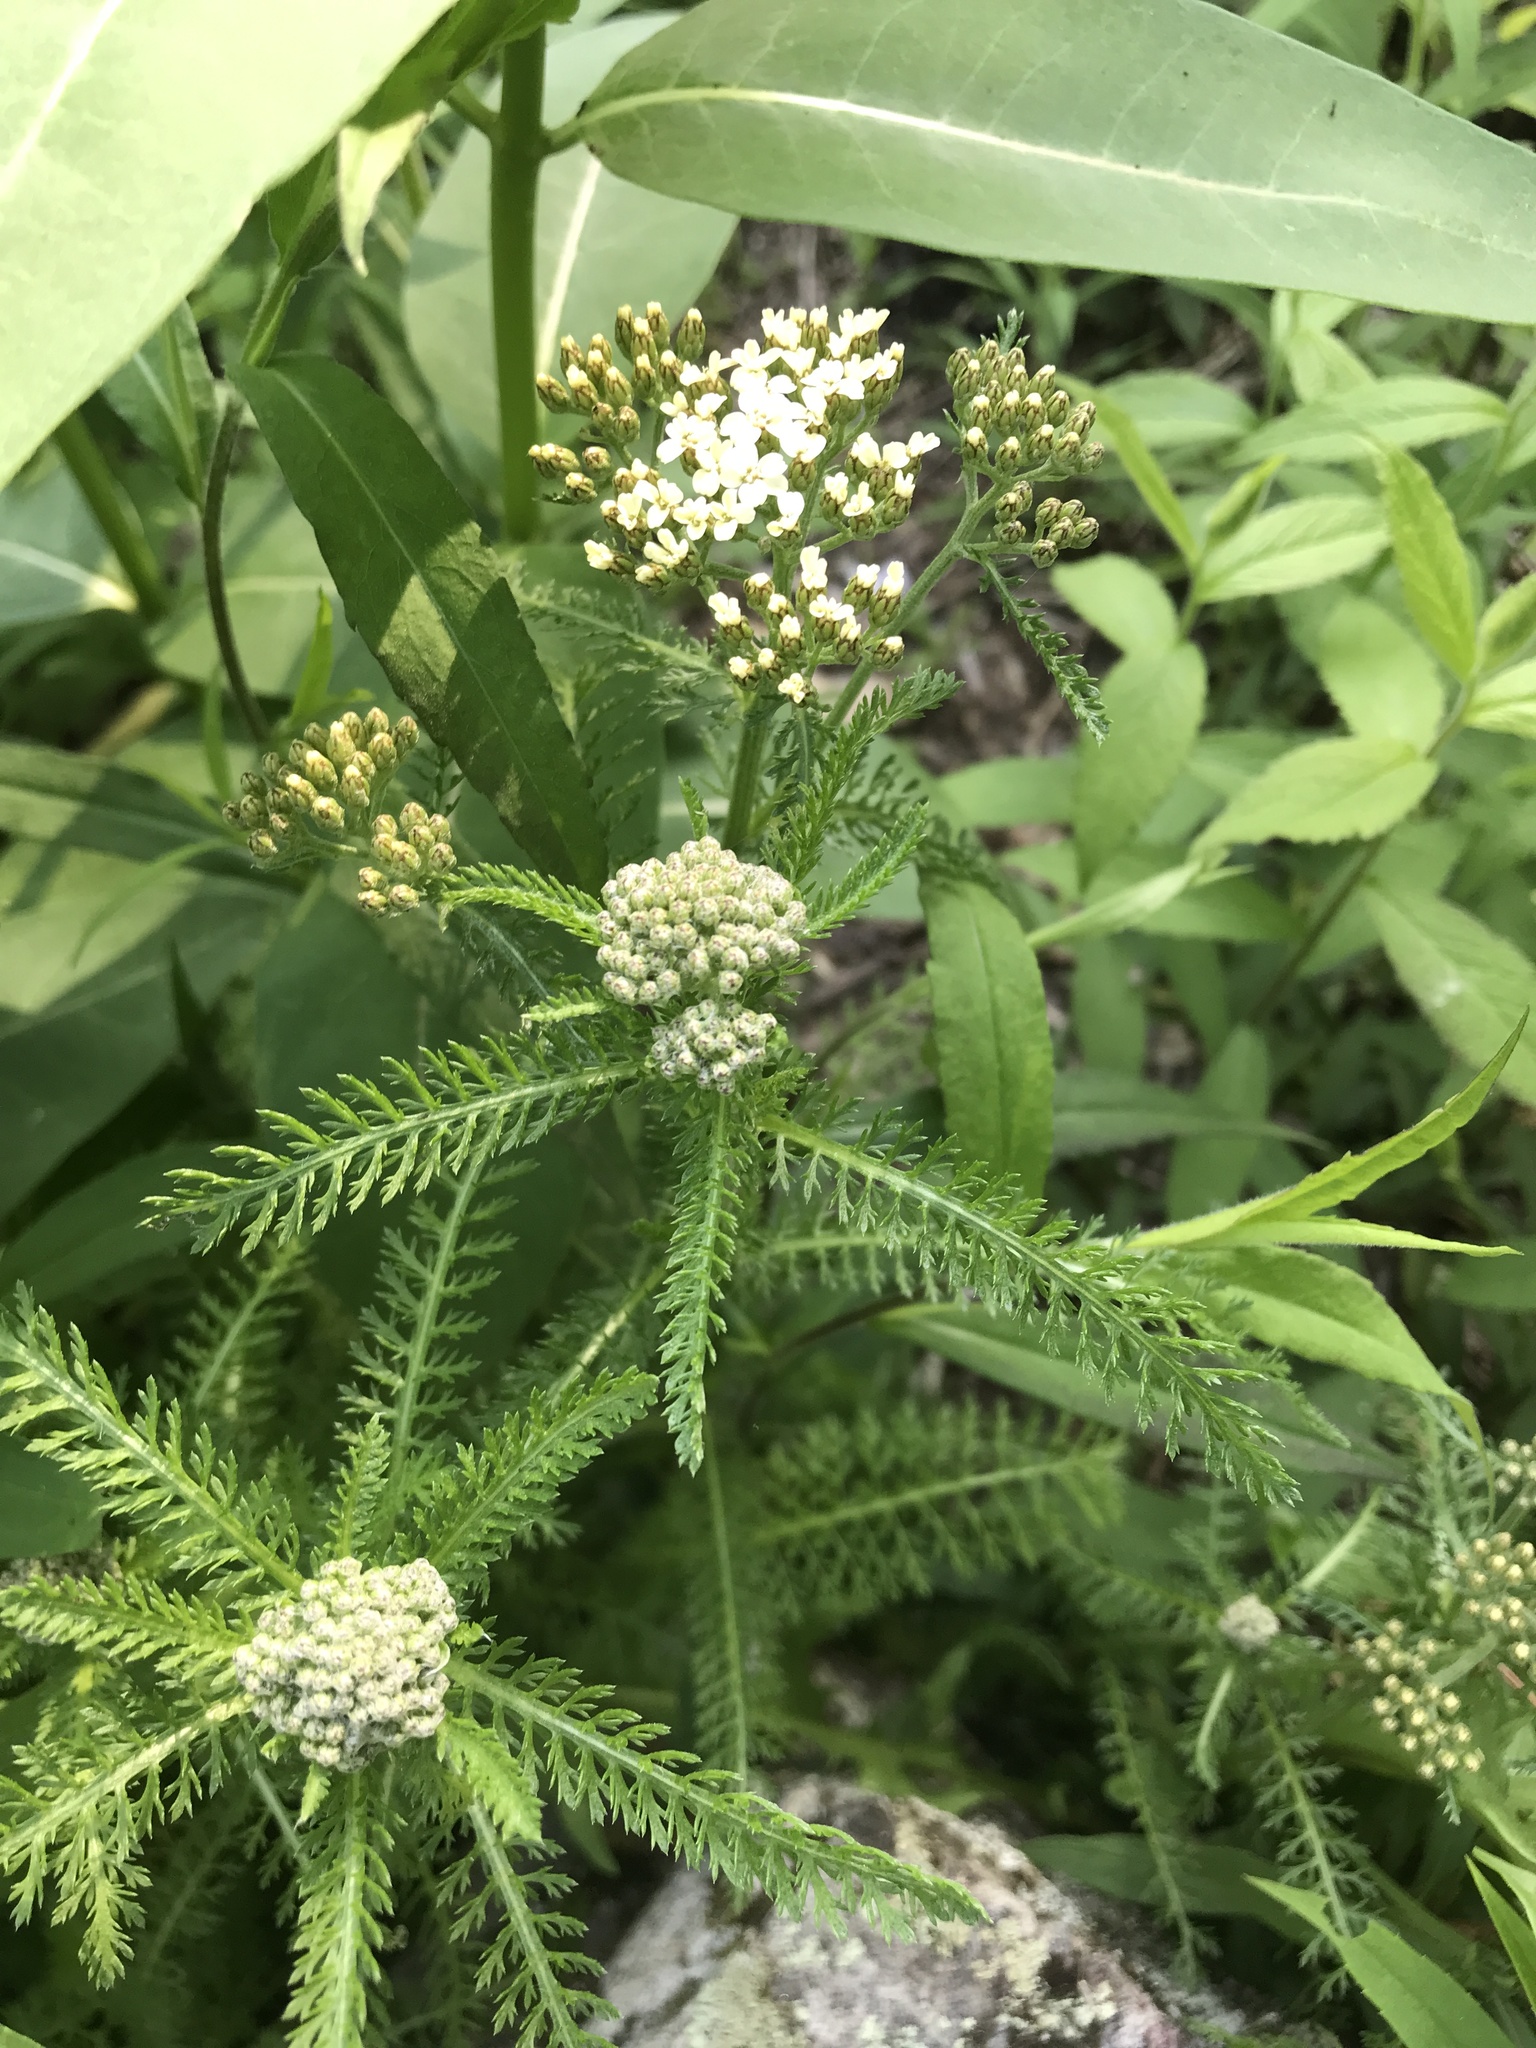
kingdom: Plantae
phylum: Tracheophyta
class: Magnoliopsida
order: Asterales
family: Asteraceae
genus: Achillea
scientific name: Achillea millefolium
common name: Yarrow
